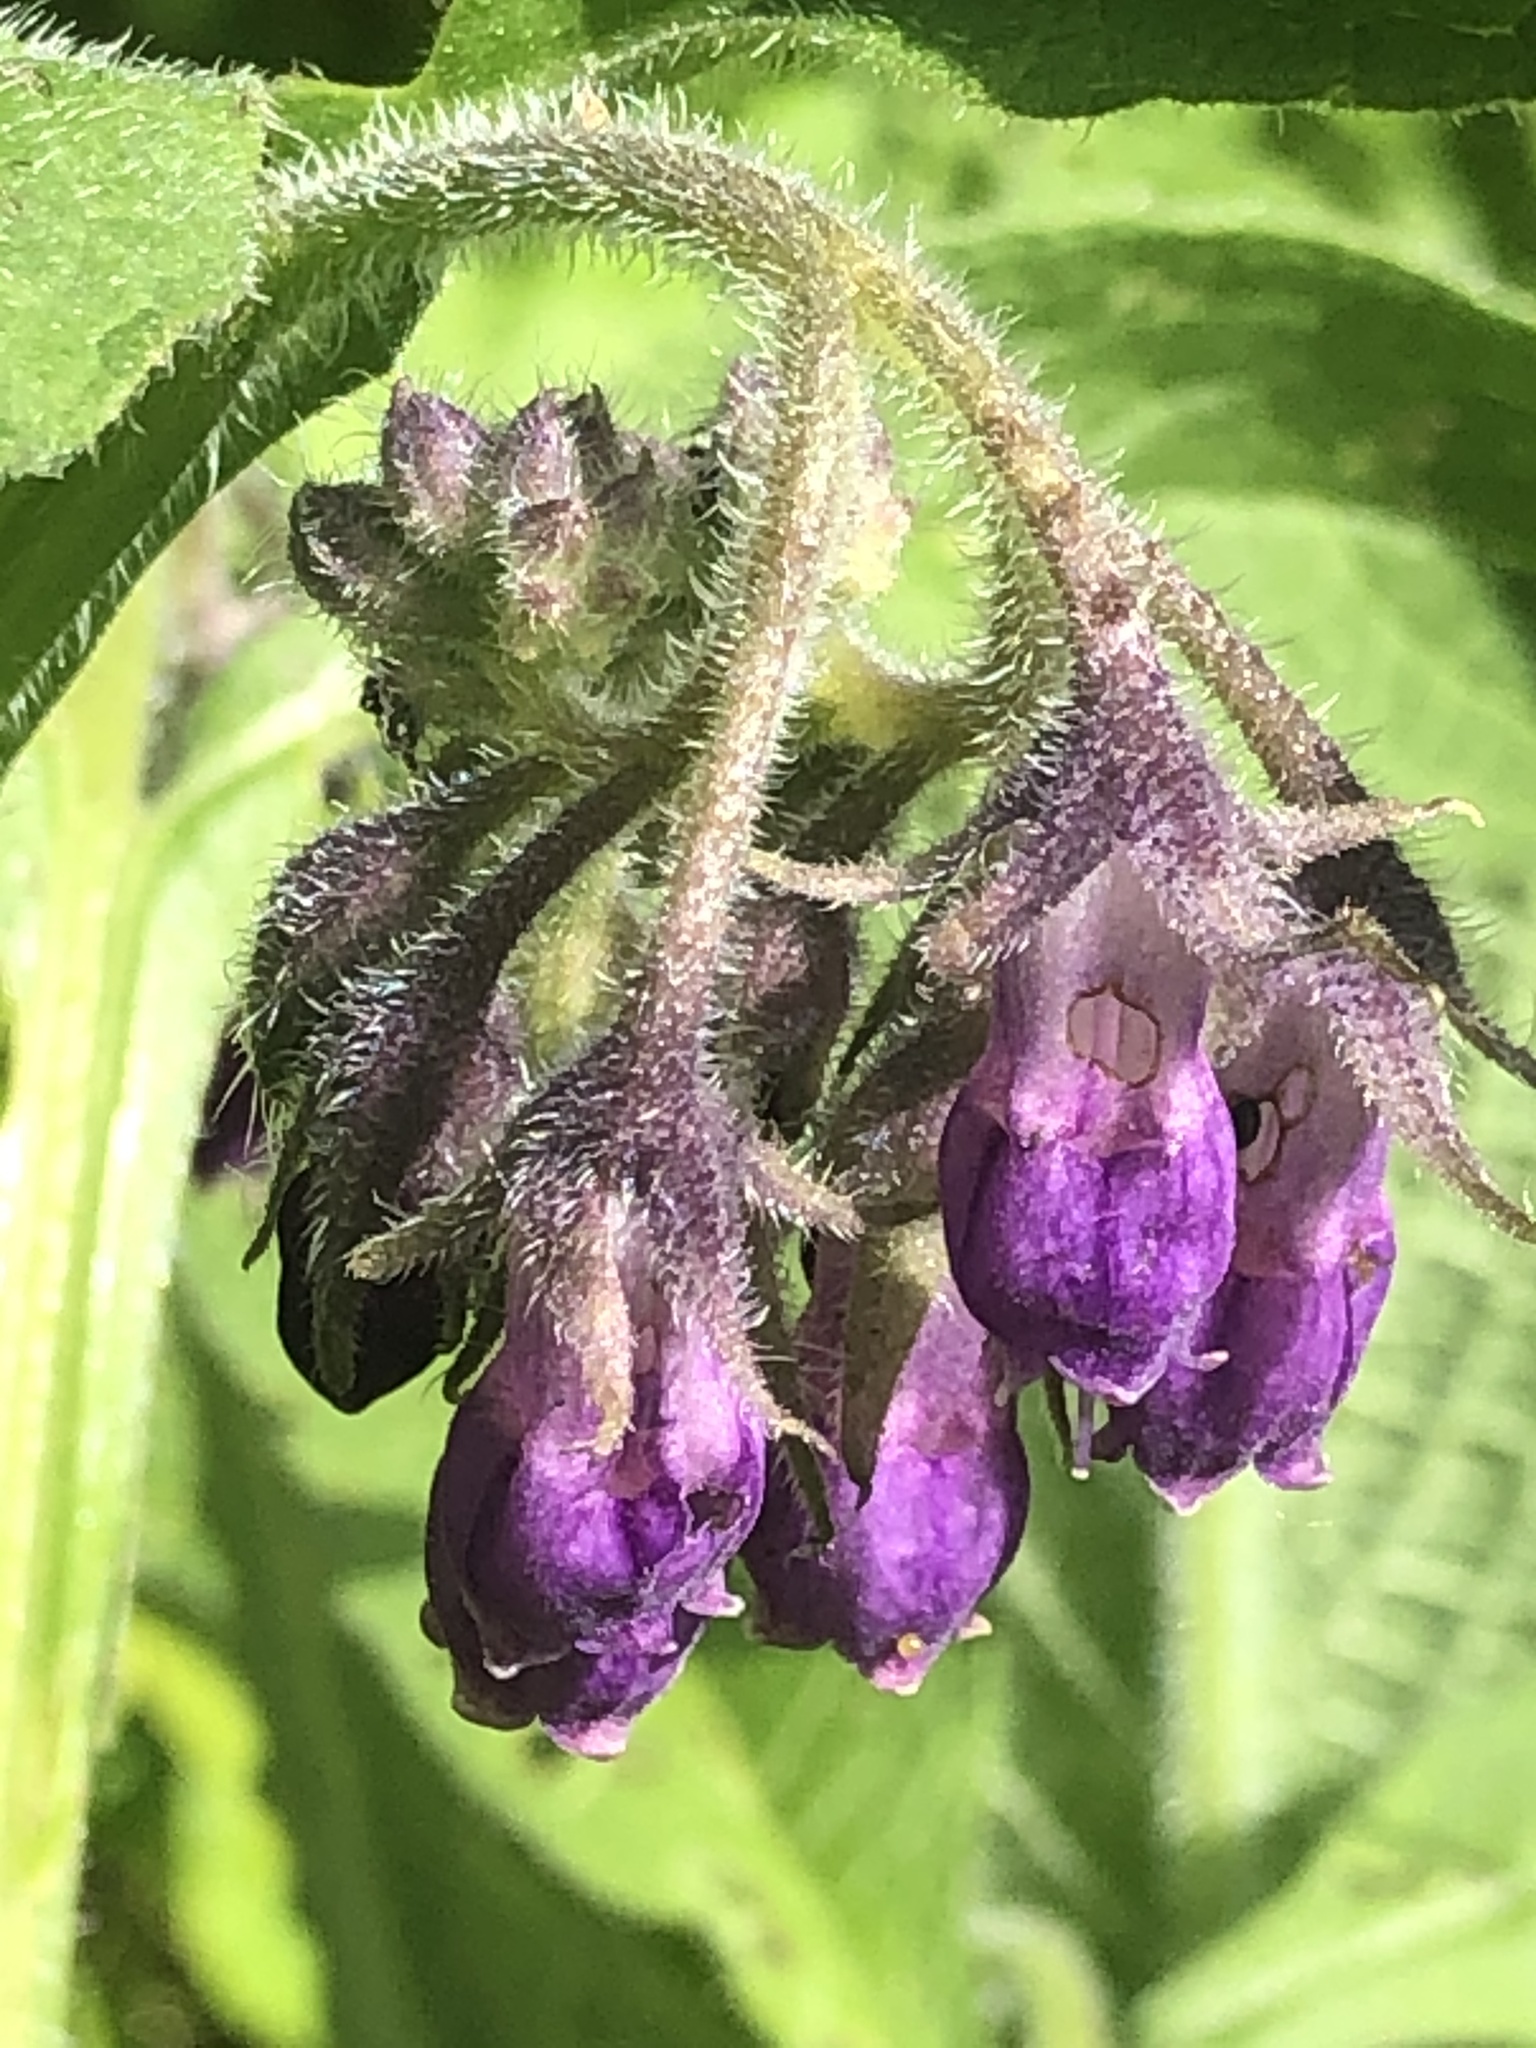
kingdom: Plantae
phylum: Tracheophyta
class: Magnoliopsida
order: Boraginales
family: Boraginaceae
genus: Symphytum
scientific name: Symphytum officinale
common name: Common comfrey
